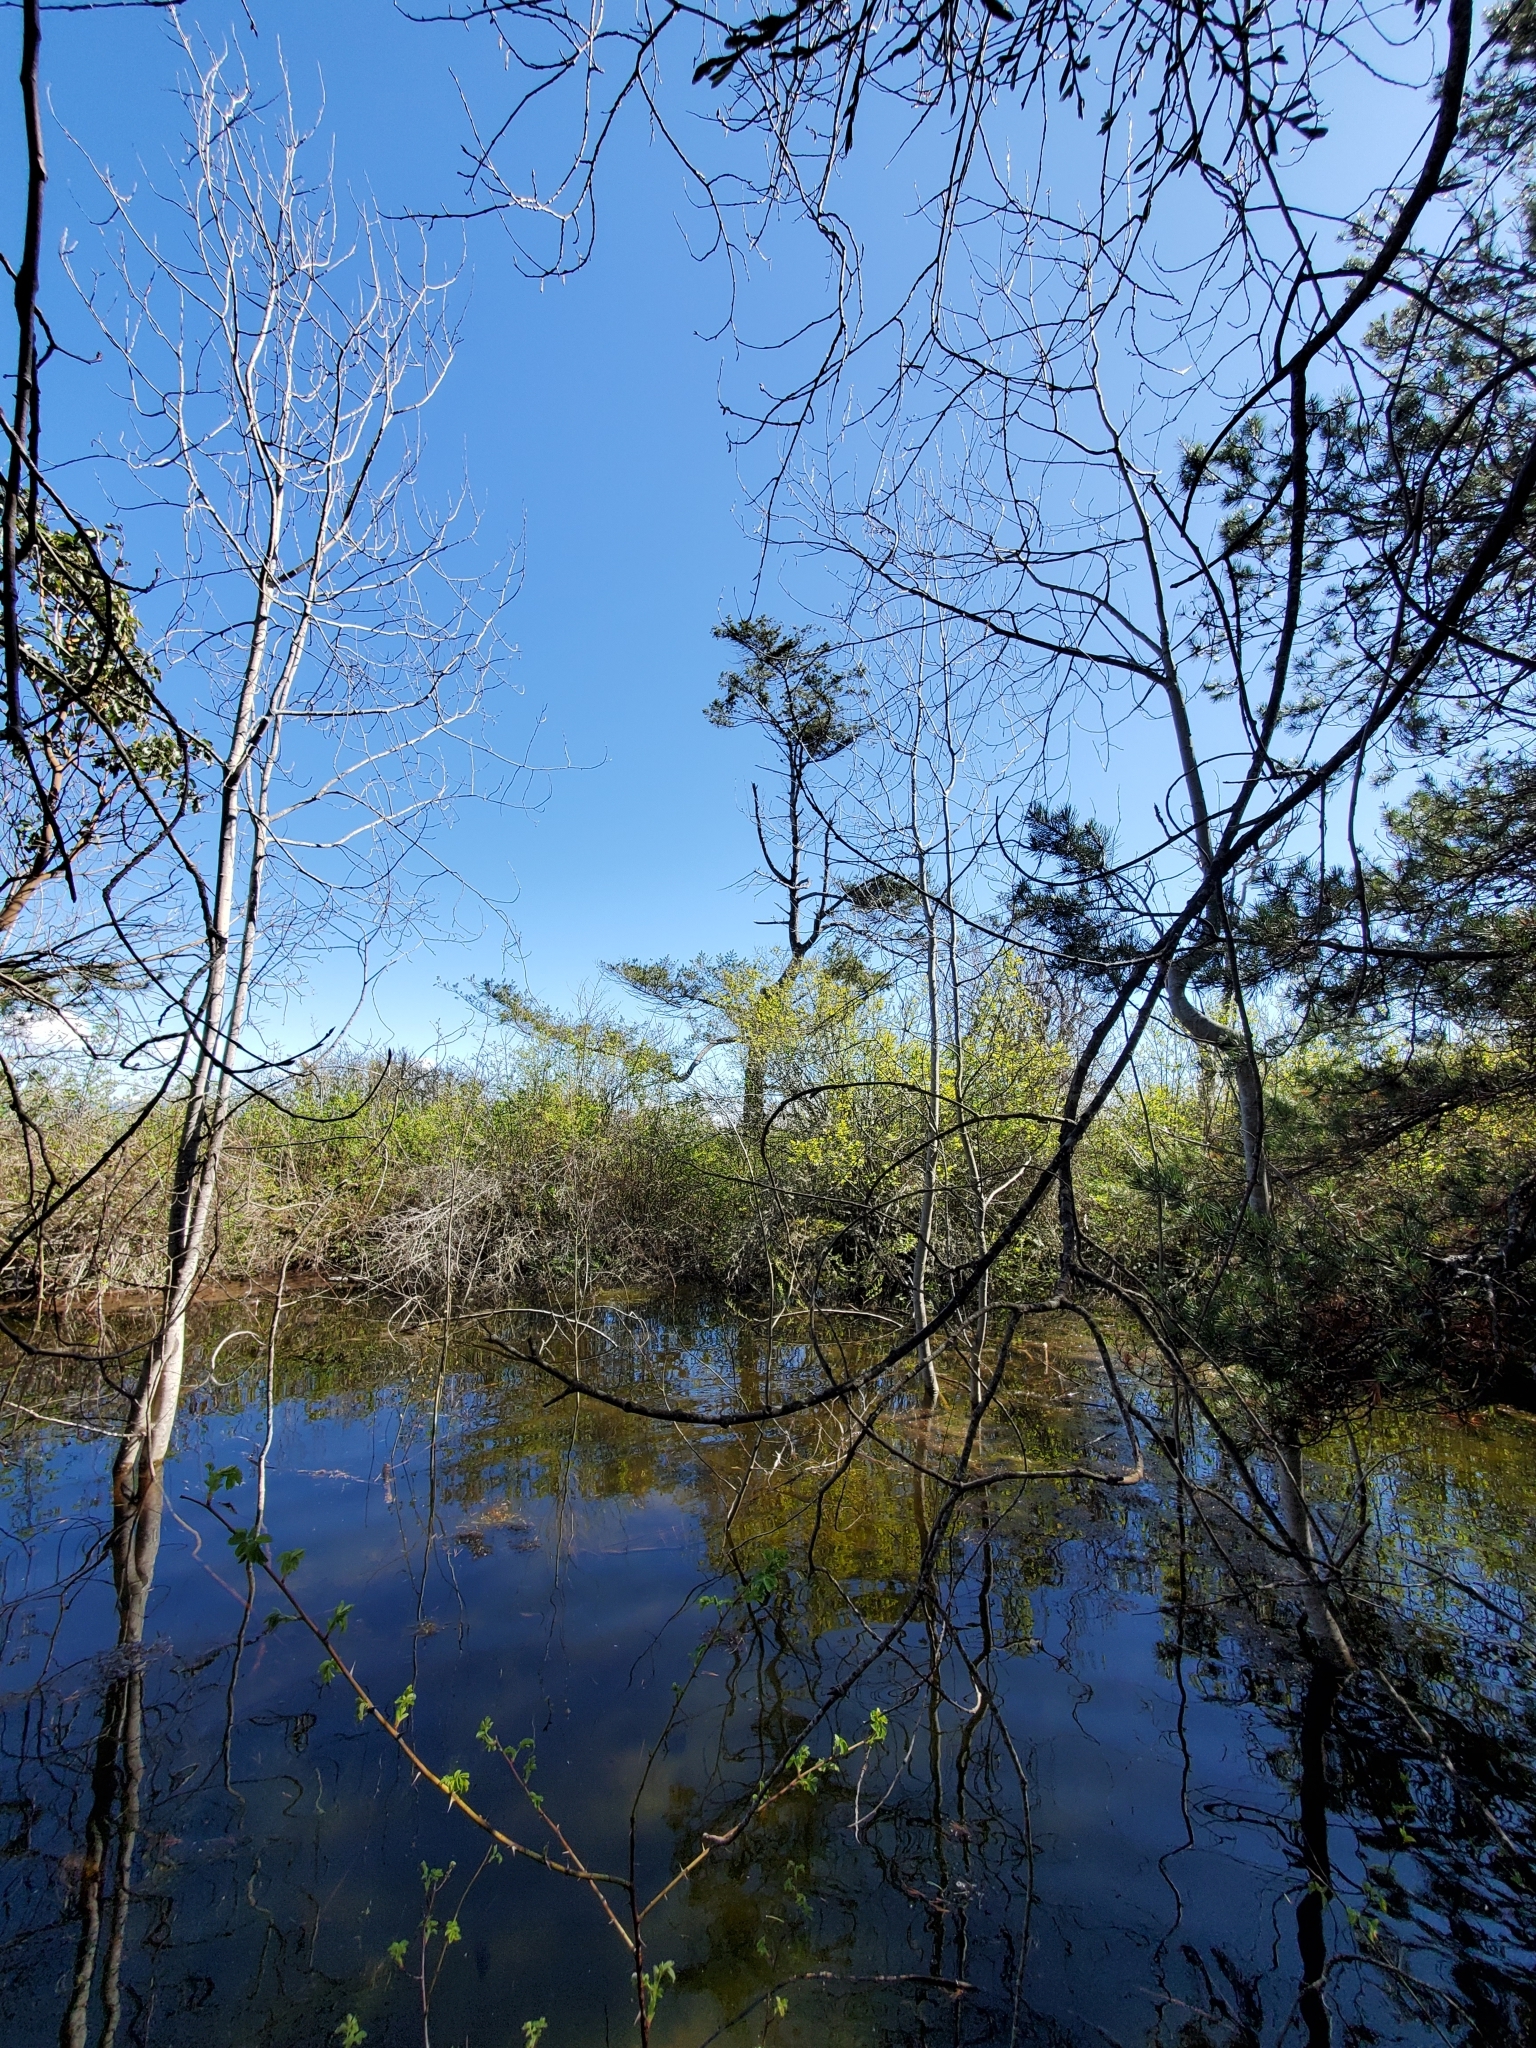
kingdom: Plantae
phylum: Tracheophyta
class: Magnoliopsida
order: Malpighiales
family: Salicaceae
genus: Populus
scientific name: Populus tremuloides
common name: Quaking aspen
